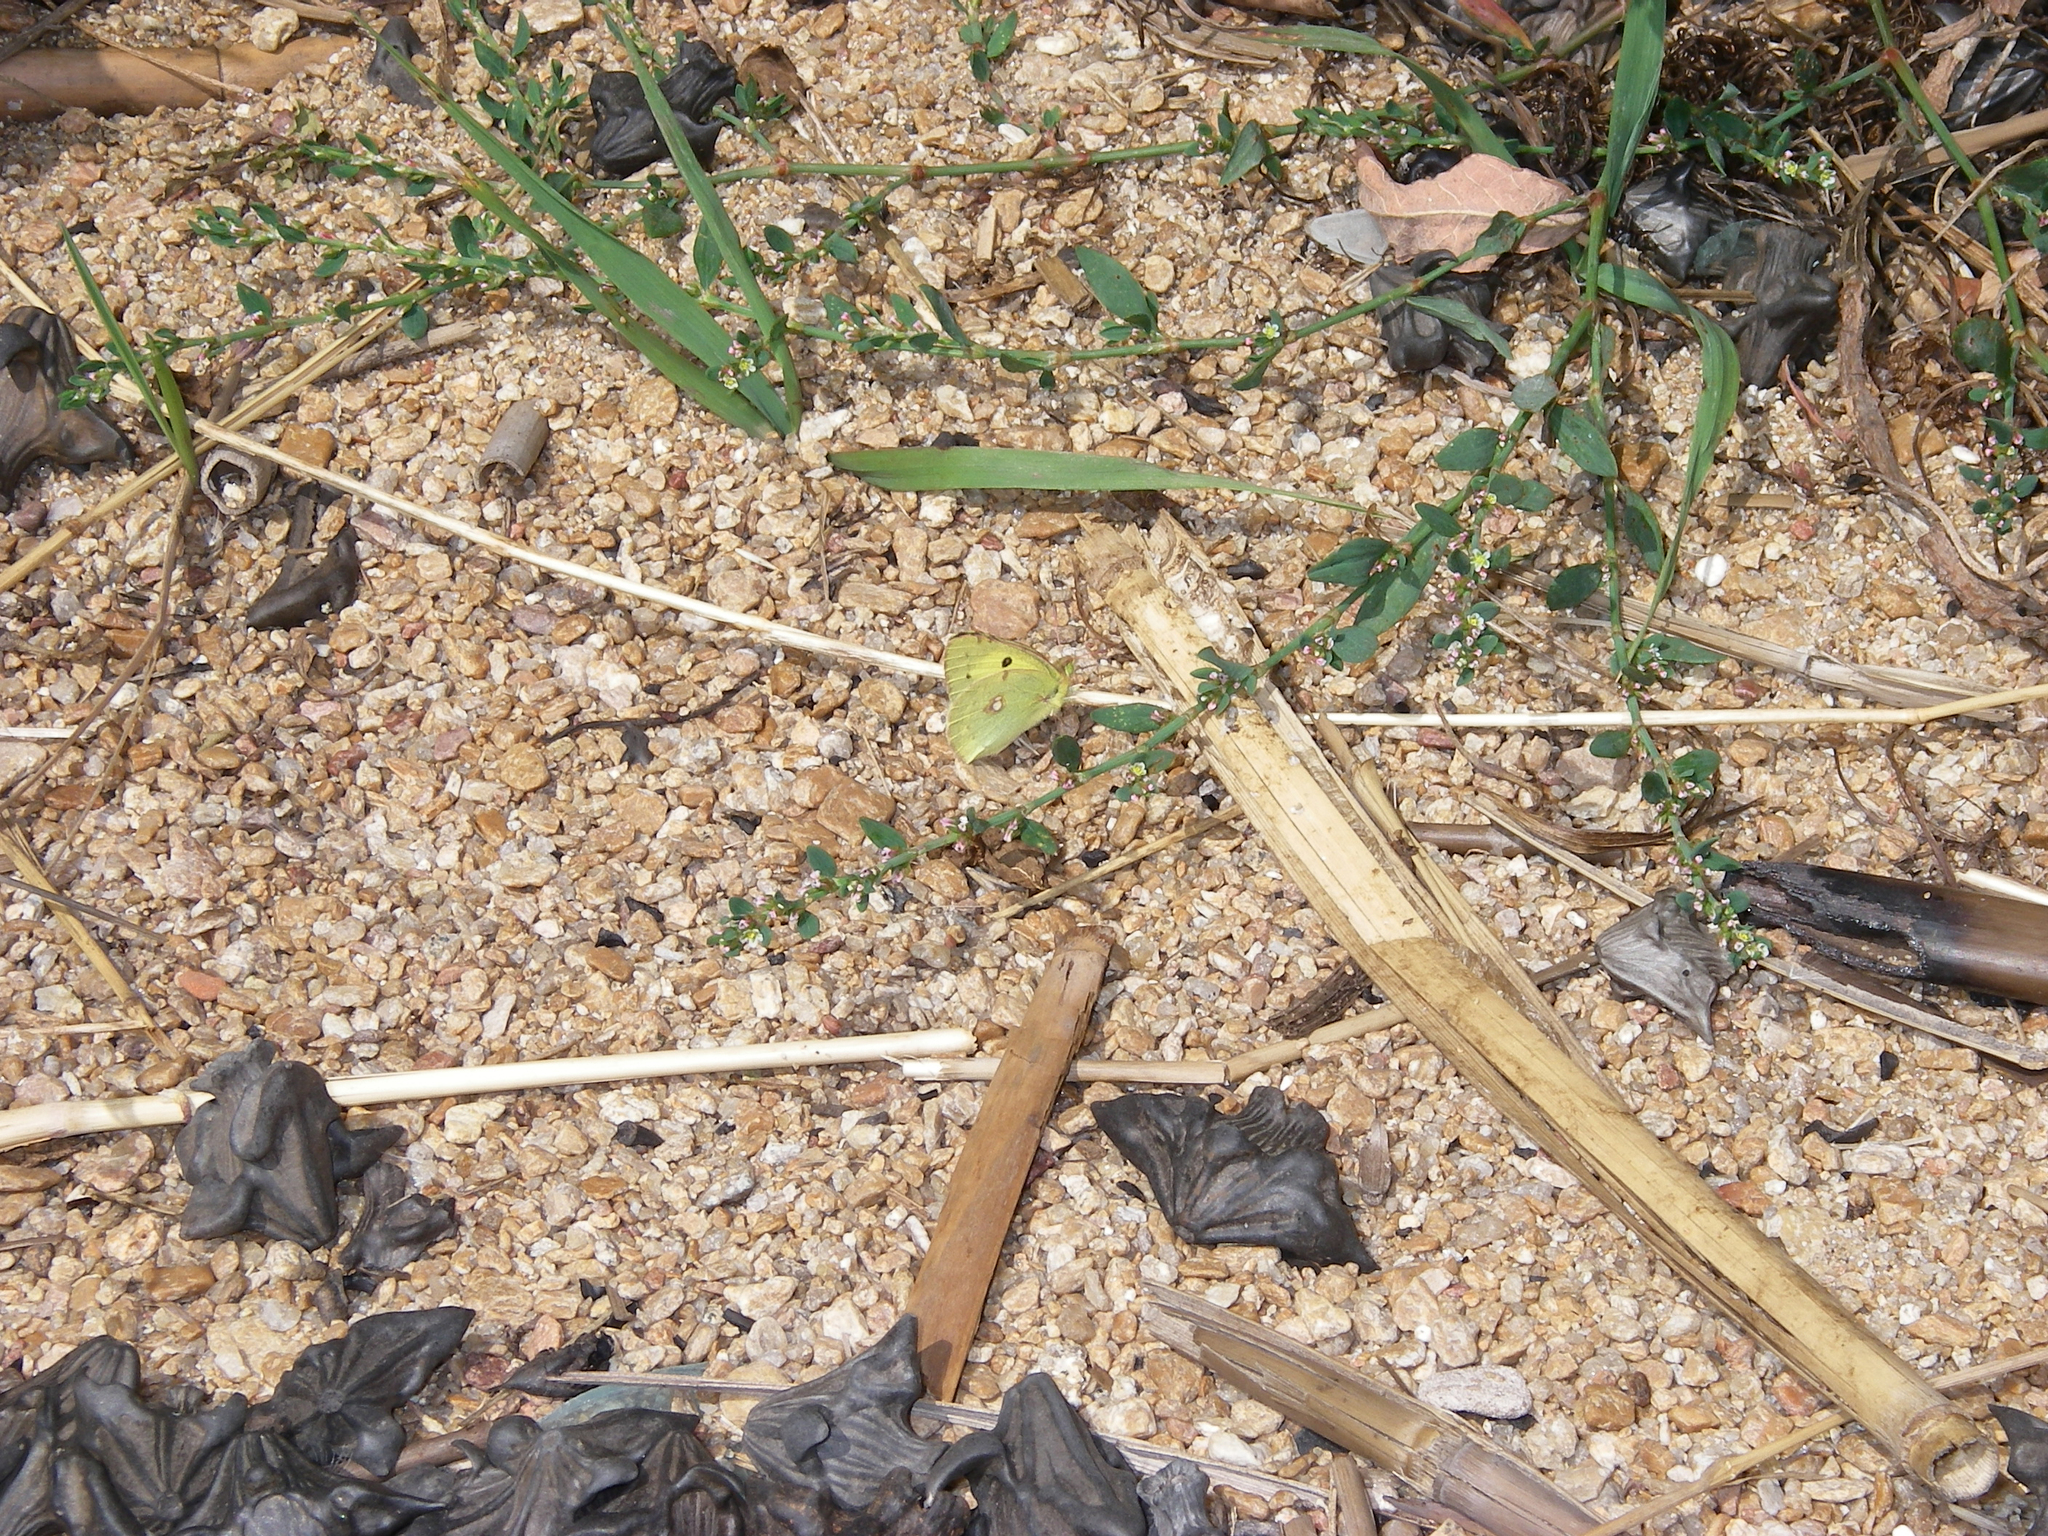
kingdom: Animalia
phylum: Arthropoda
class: Insecta
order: Lepidoptera
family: Pieridae
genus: Colias
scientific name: Colias erate
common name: Eastern pale clouded yellow
